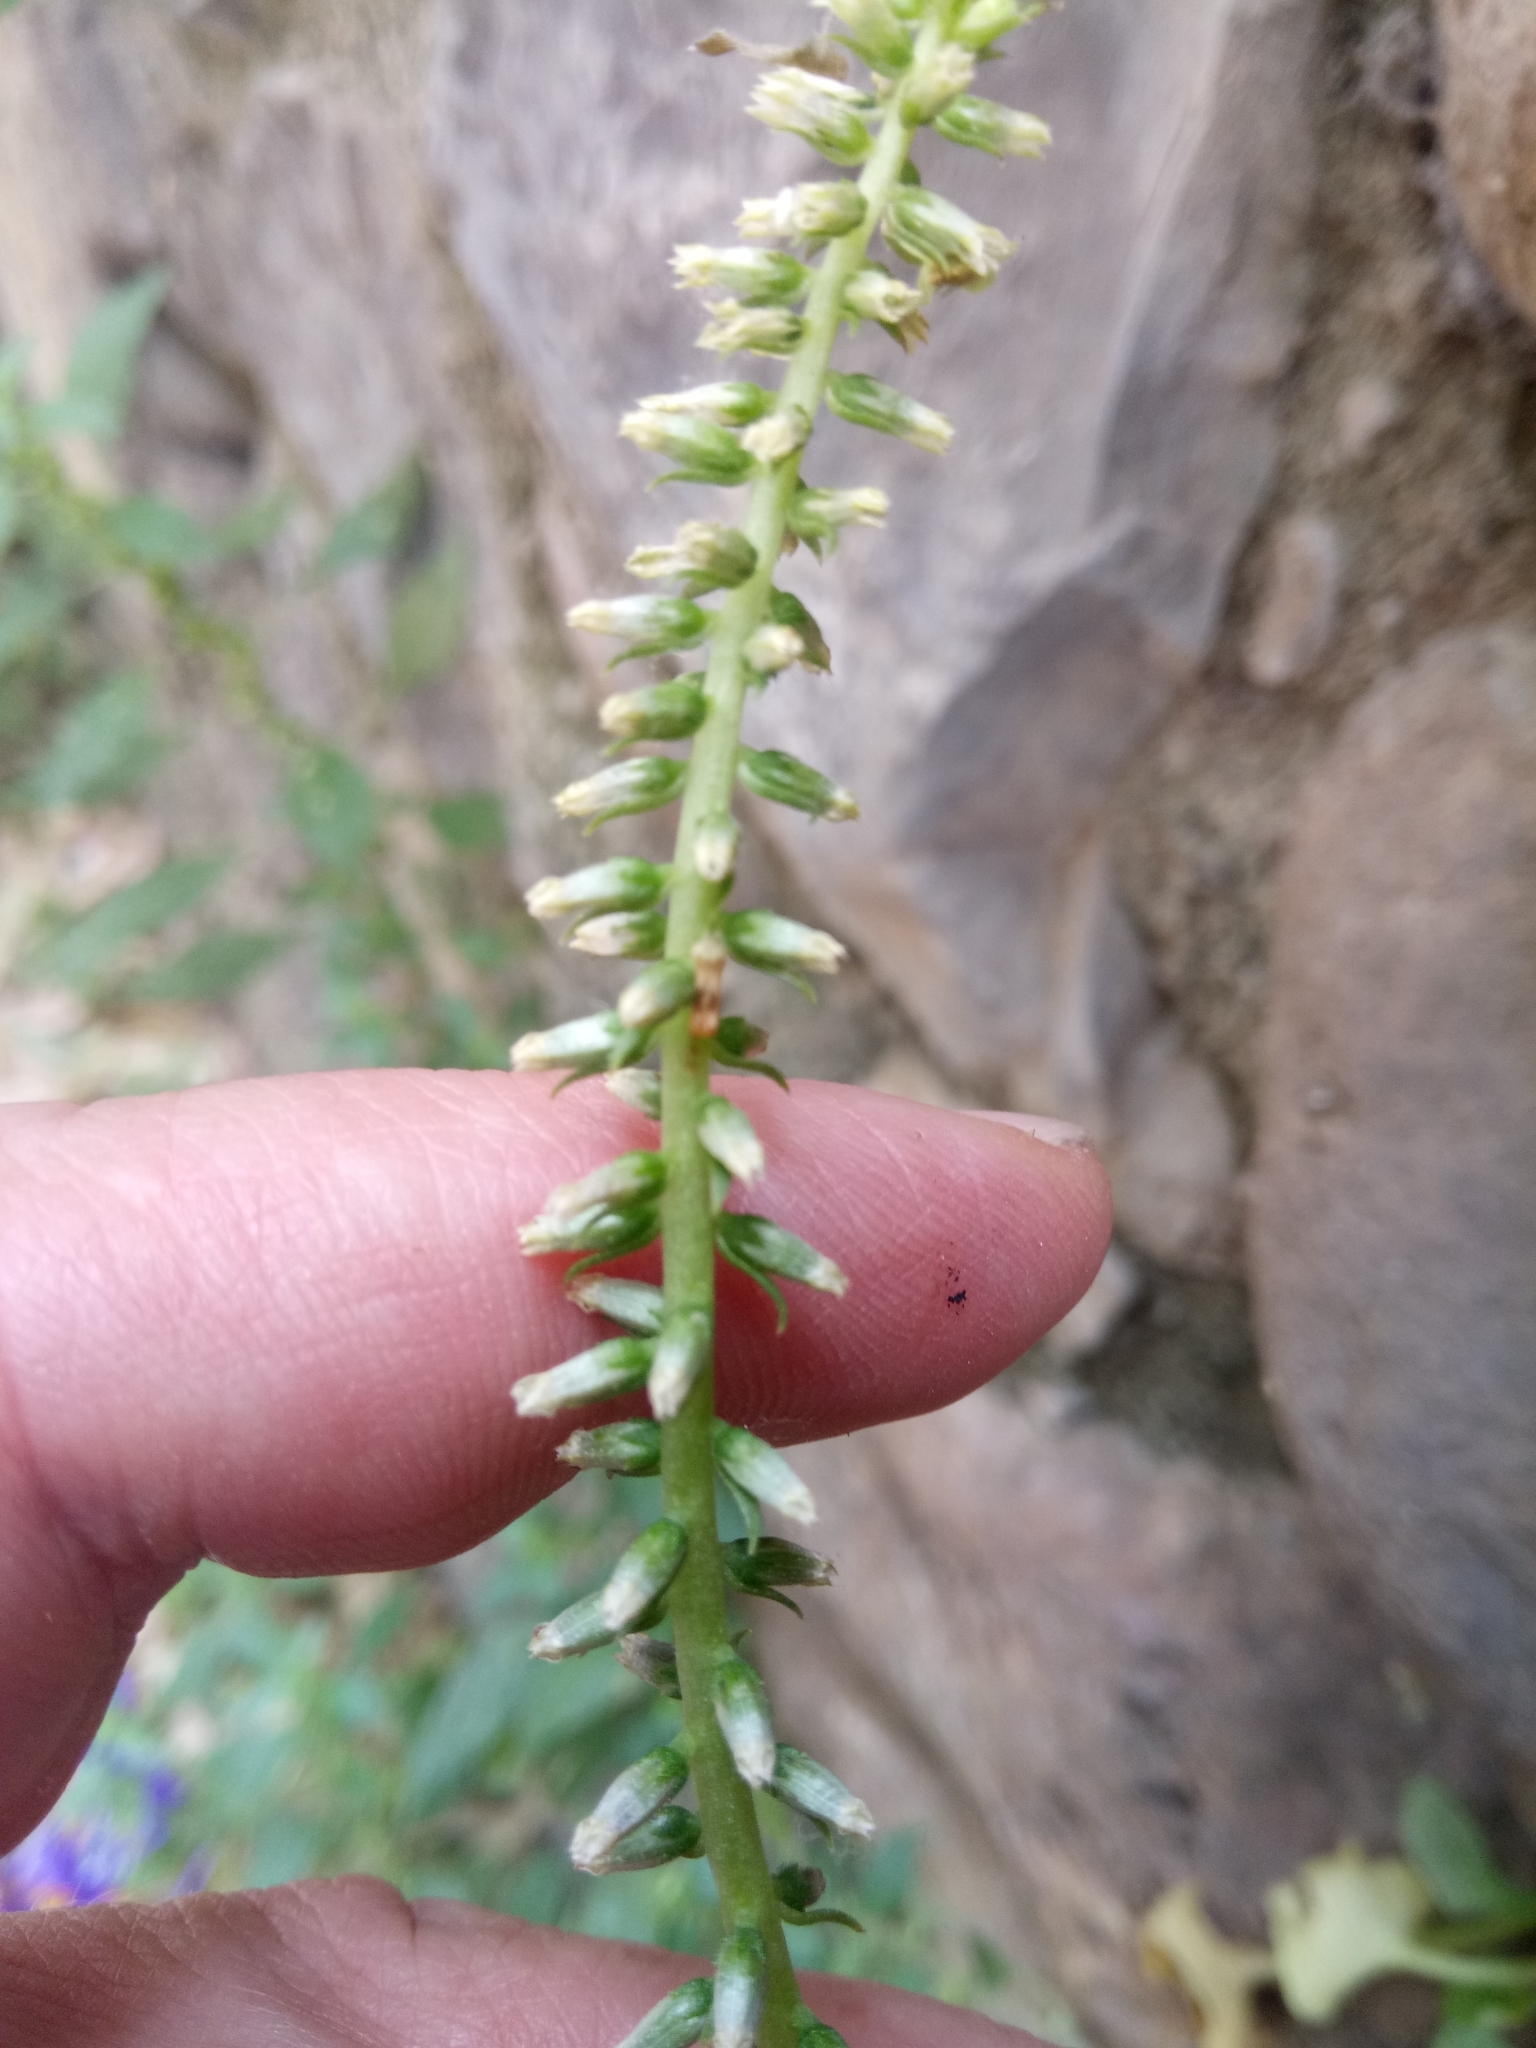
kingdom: Plantae
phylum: Tracheophyta
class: Magnoliopsida
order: Saxifragales
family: Crassulaceae
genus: Umbilicus
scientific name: Umbilicus horizontalis
